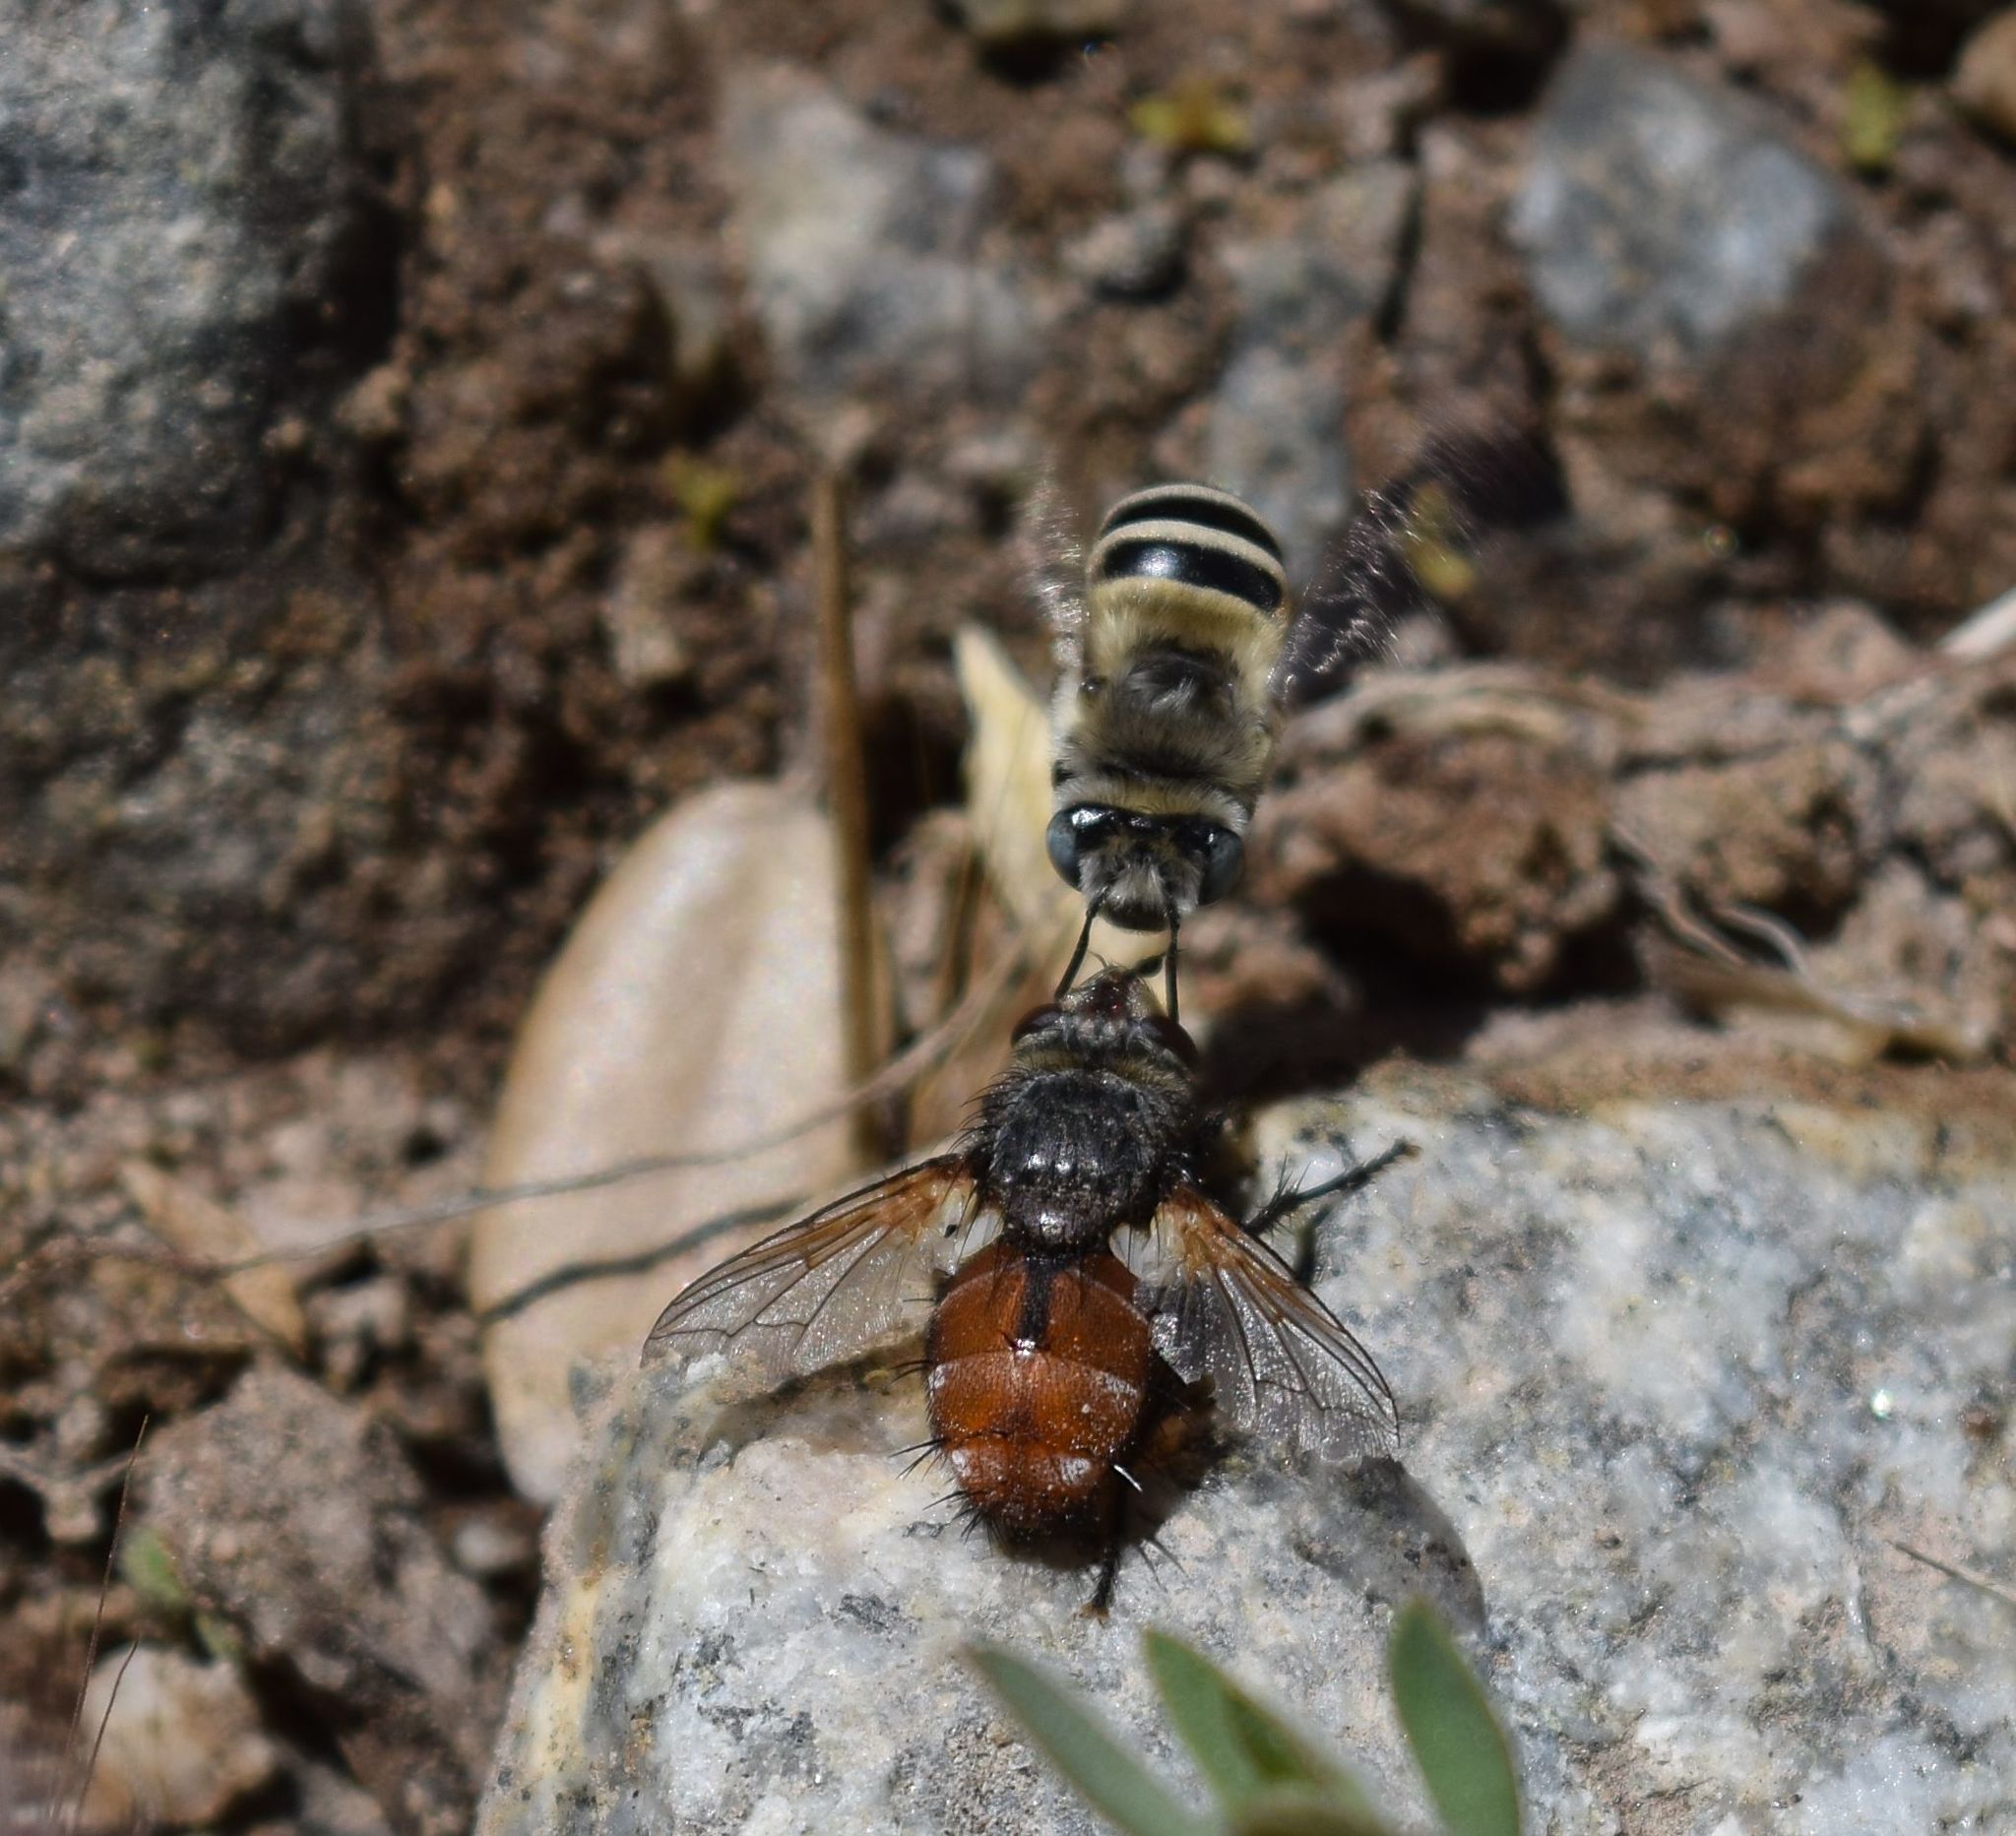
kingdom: Animalia
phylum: Arthropoda
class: Insecta
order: Hymenoptera
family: Apidae
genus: Anthophora
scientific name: Anthophora urbana
